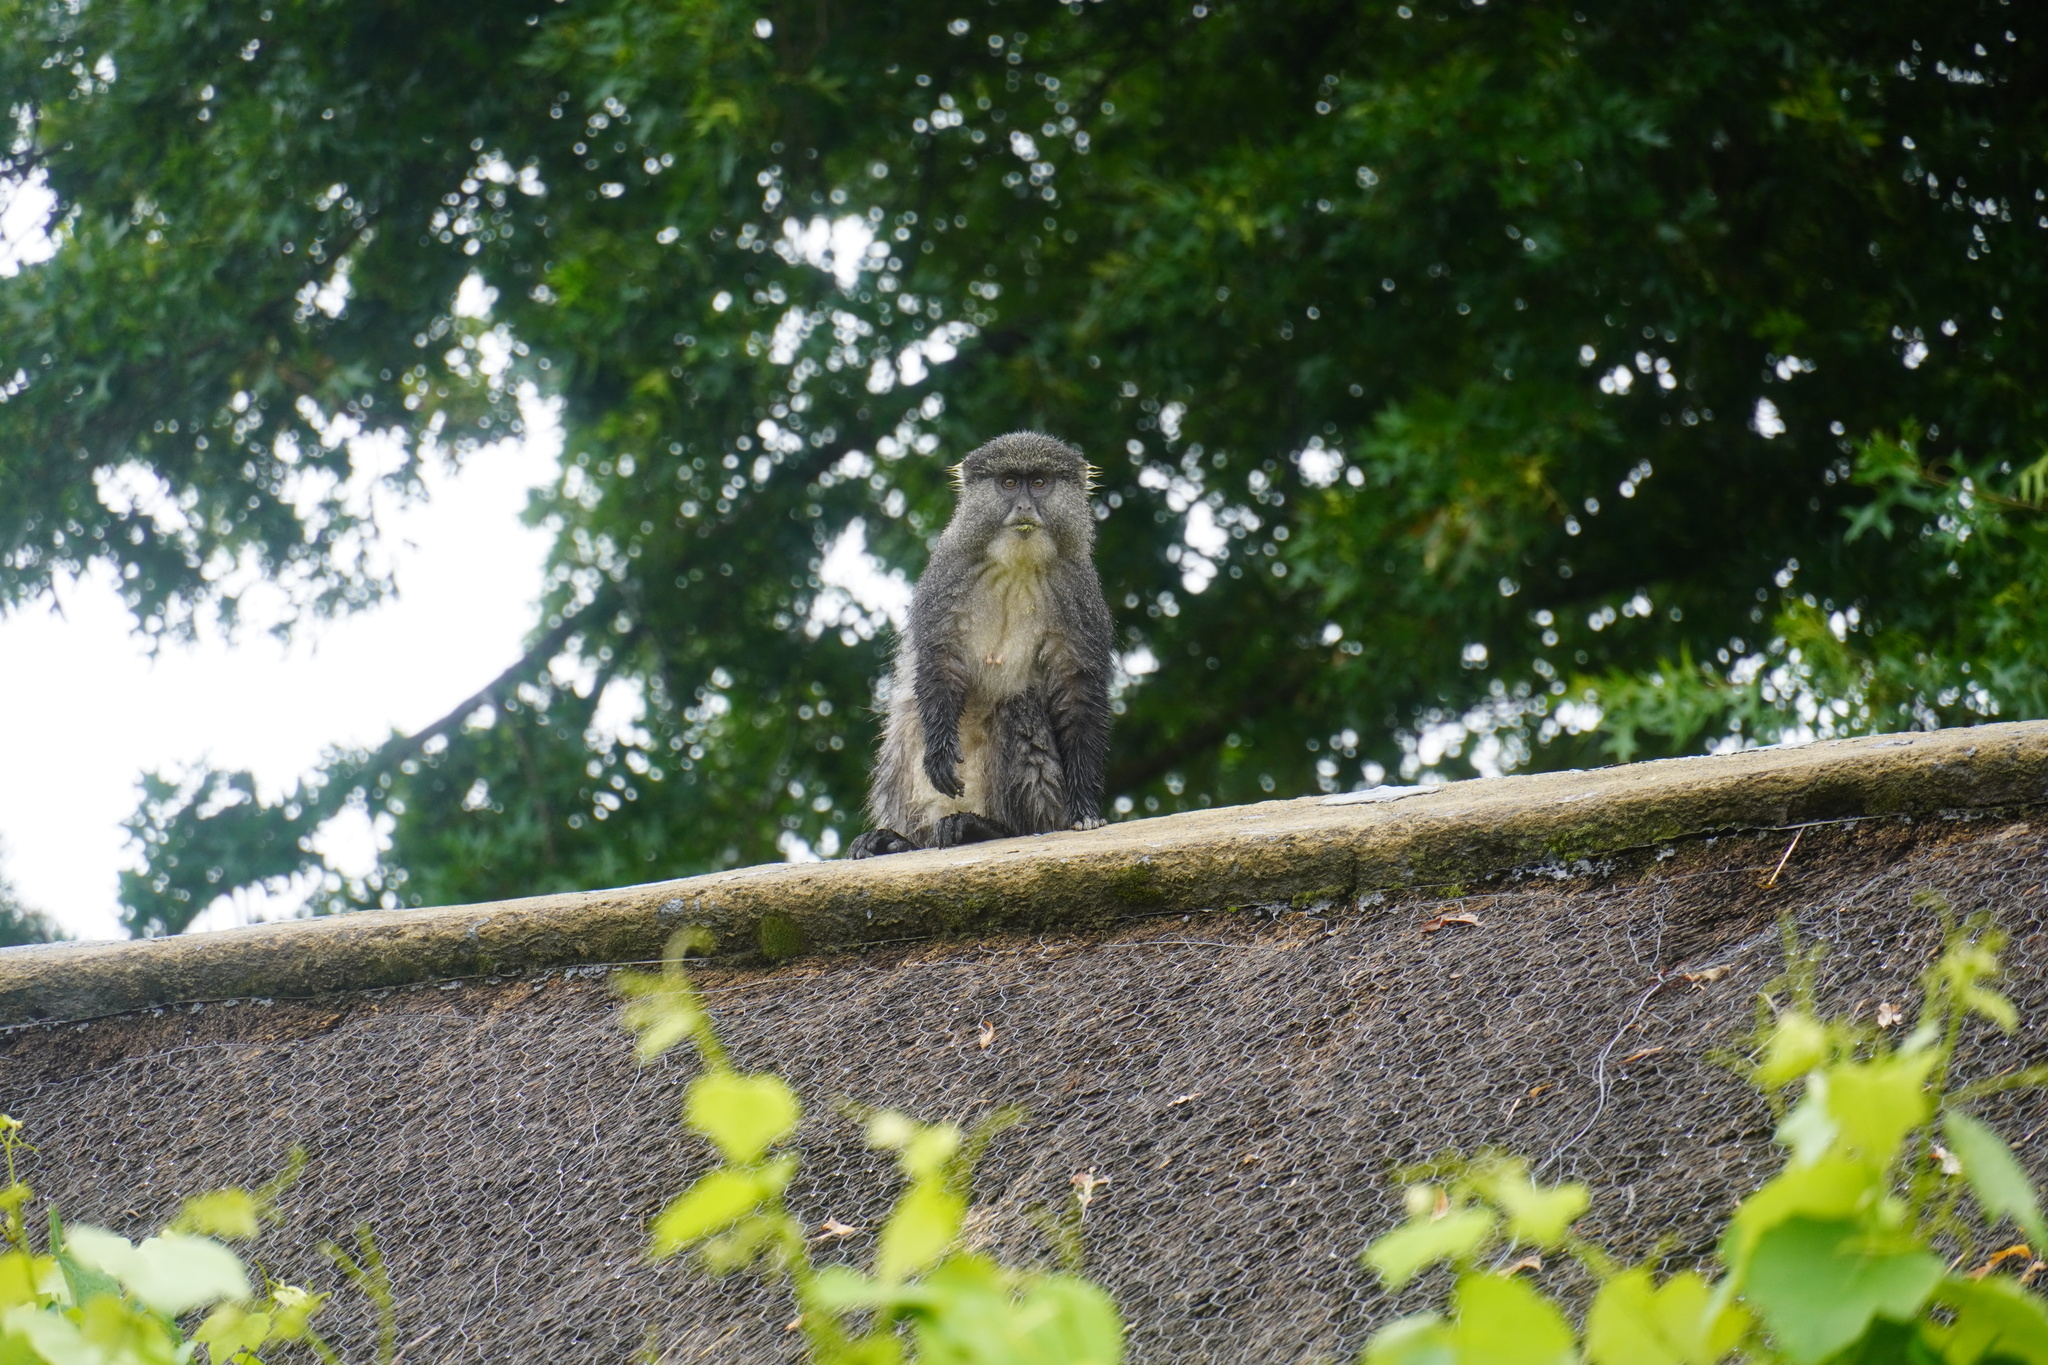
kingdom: Animalia
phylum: Chordata
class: Mammalia
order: Primates
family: Cercopithecidae
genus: Cercopithecus
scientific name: Cercopithecus mitis
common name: Blue monkey
